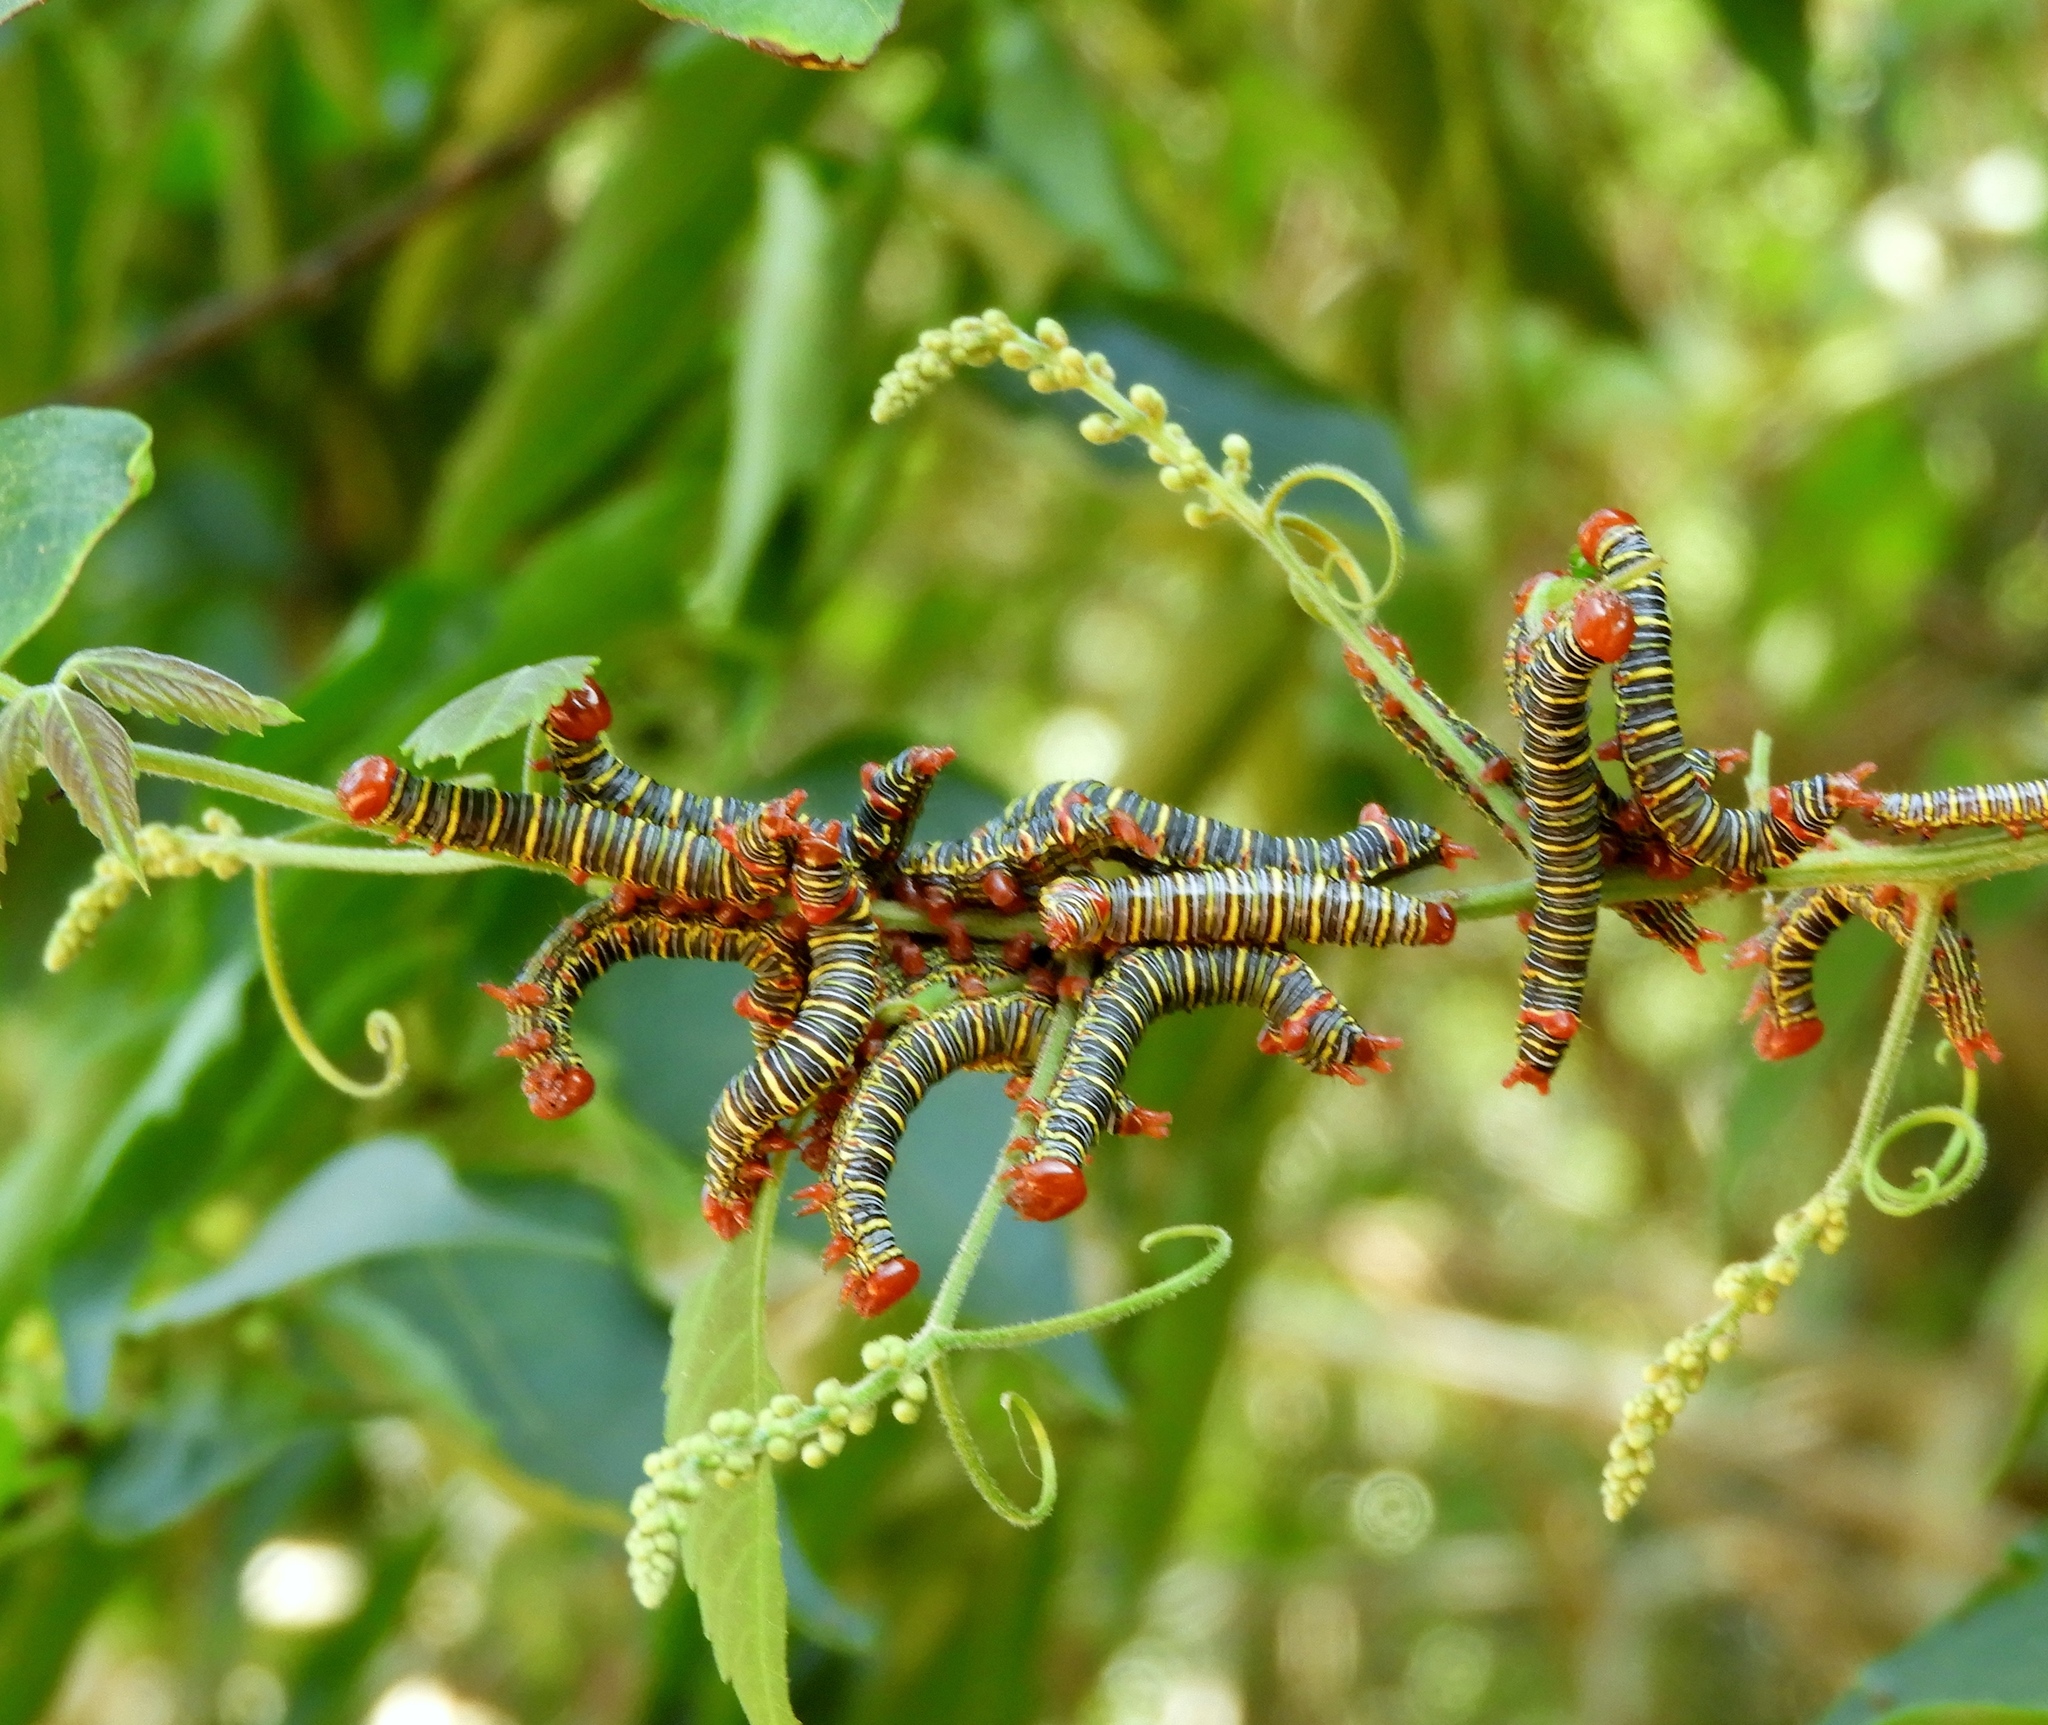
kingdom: Animalia
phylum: Arthropoda
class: Insecta
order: Lepidoptera
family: Notodontidae
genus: Didugua
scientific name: Didugua argentilinea
